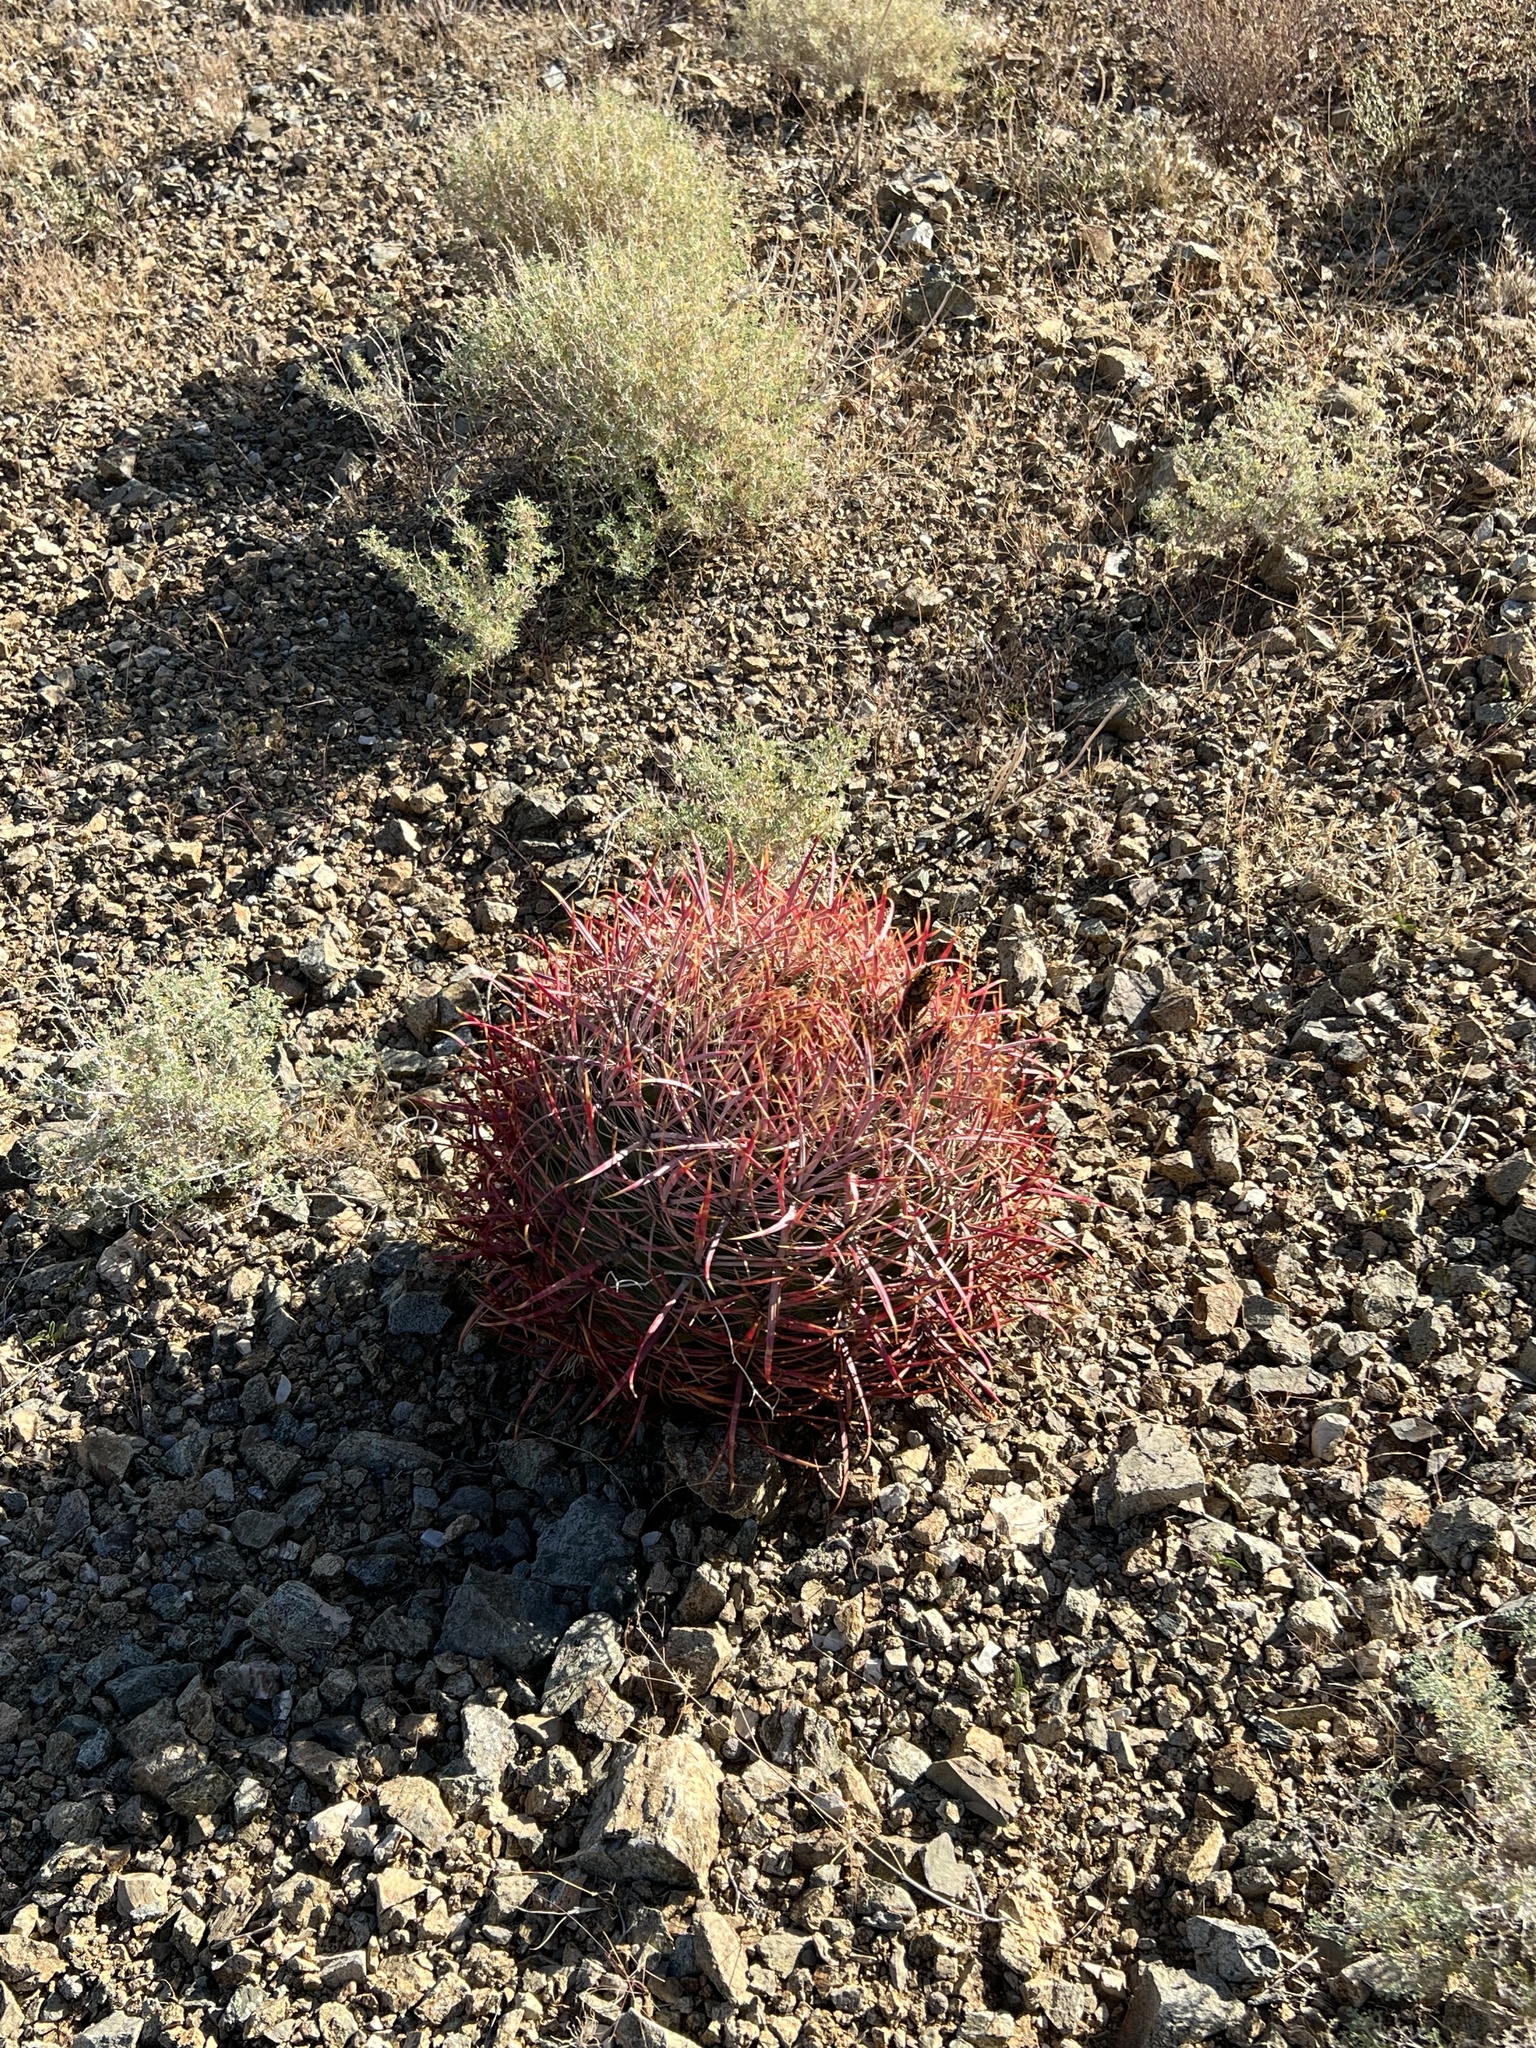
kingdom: Plantae
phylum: Tracheophyta
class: Magnoliopsida
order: Caryophyllales
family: Cactaceae
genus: Ferocactus
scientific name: Ferocactus cylindraceus
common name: California barrel cactus
